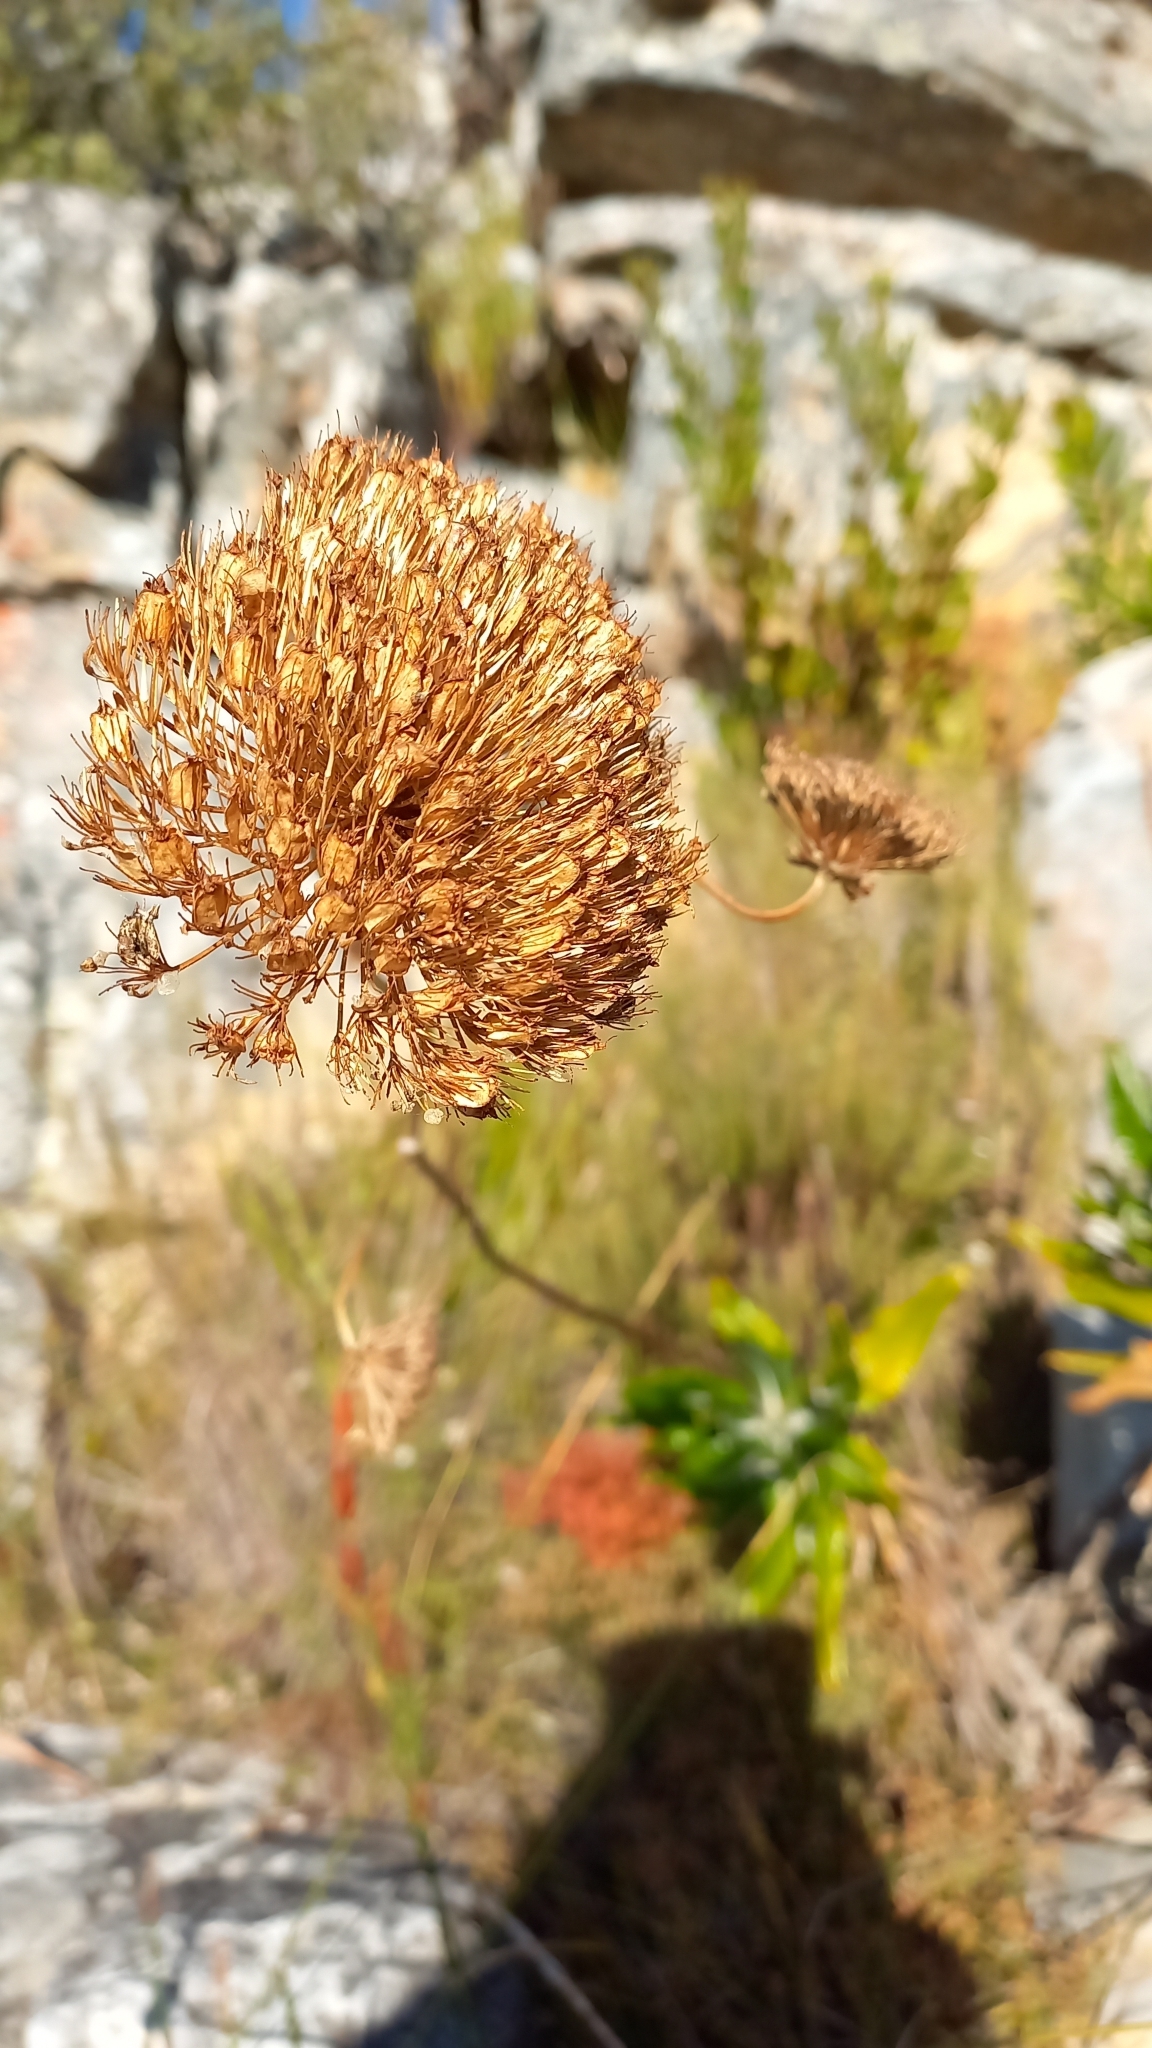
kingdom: Plantae
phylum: Tracheophyta
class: Magnoliopsida
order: Apiales
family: Apiaceae
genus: Hermas
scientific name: Hermas villosa
